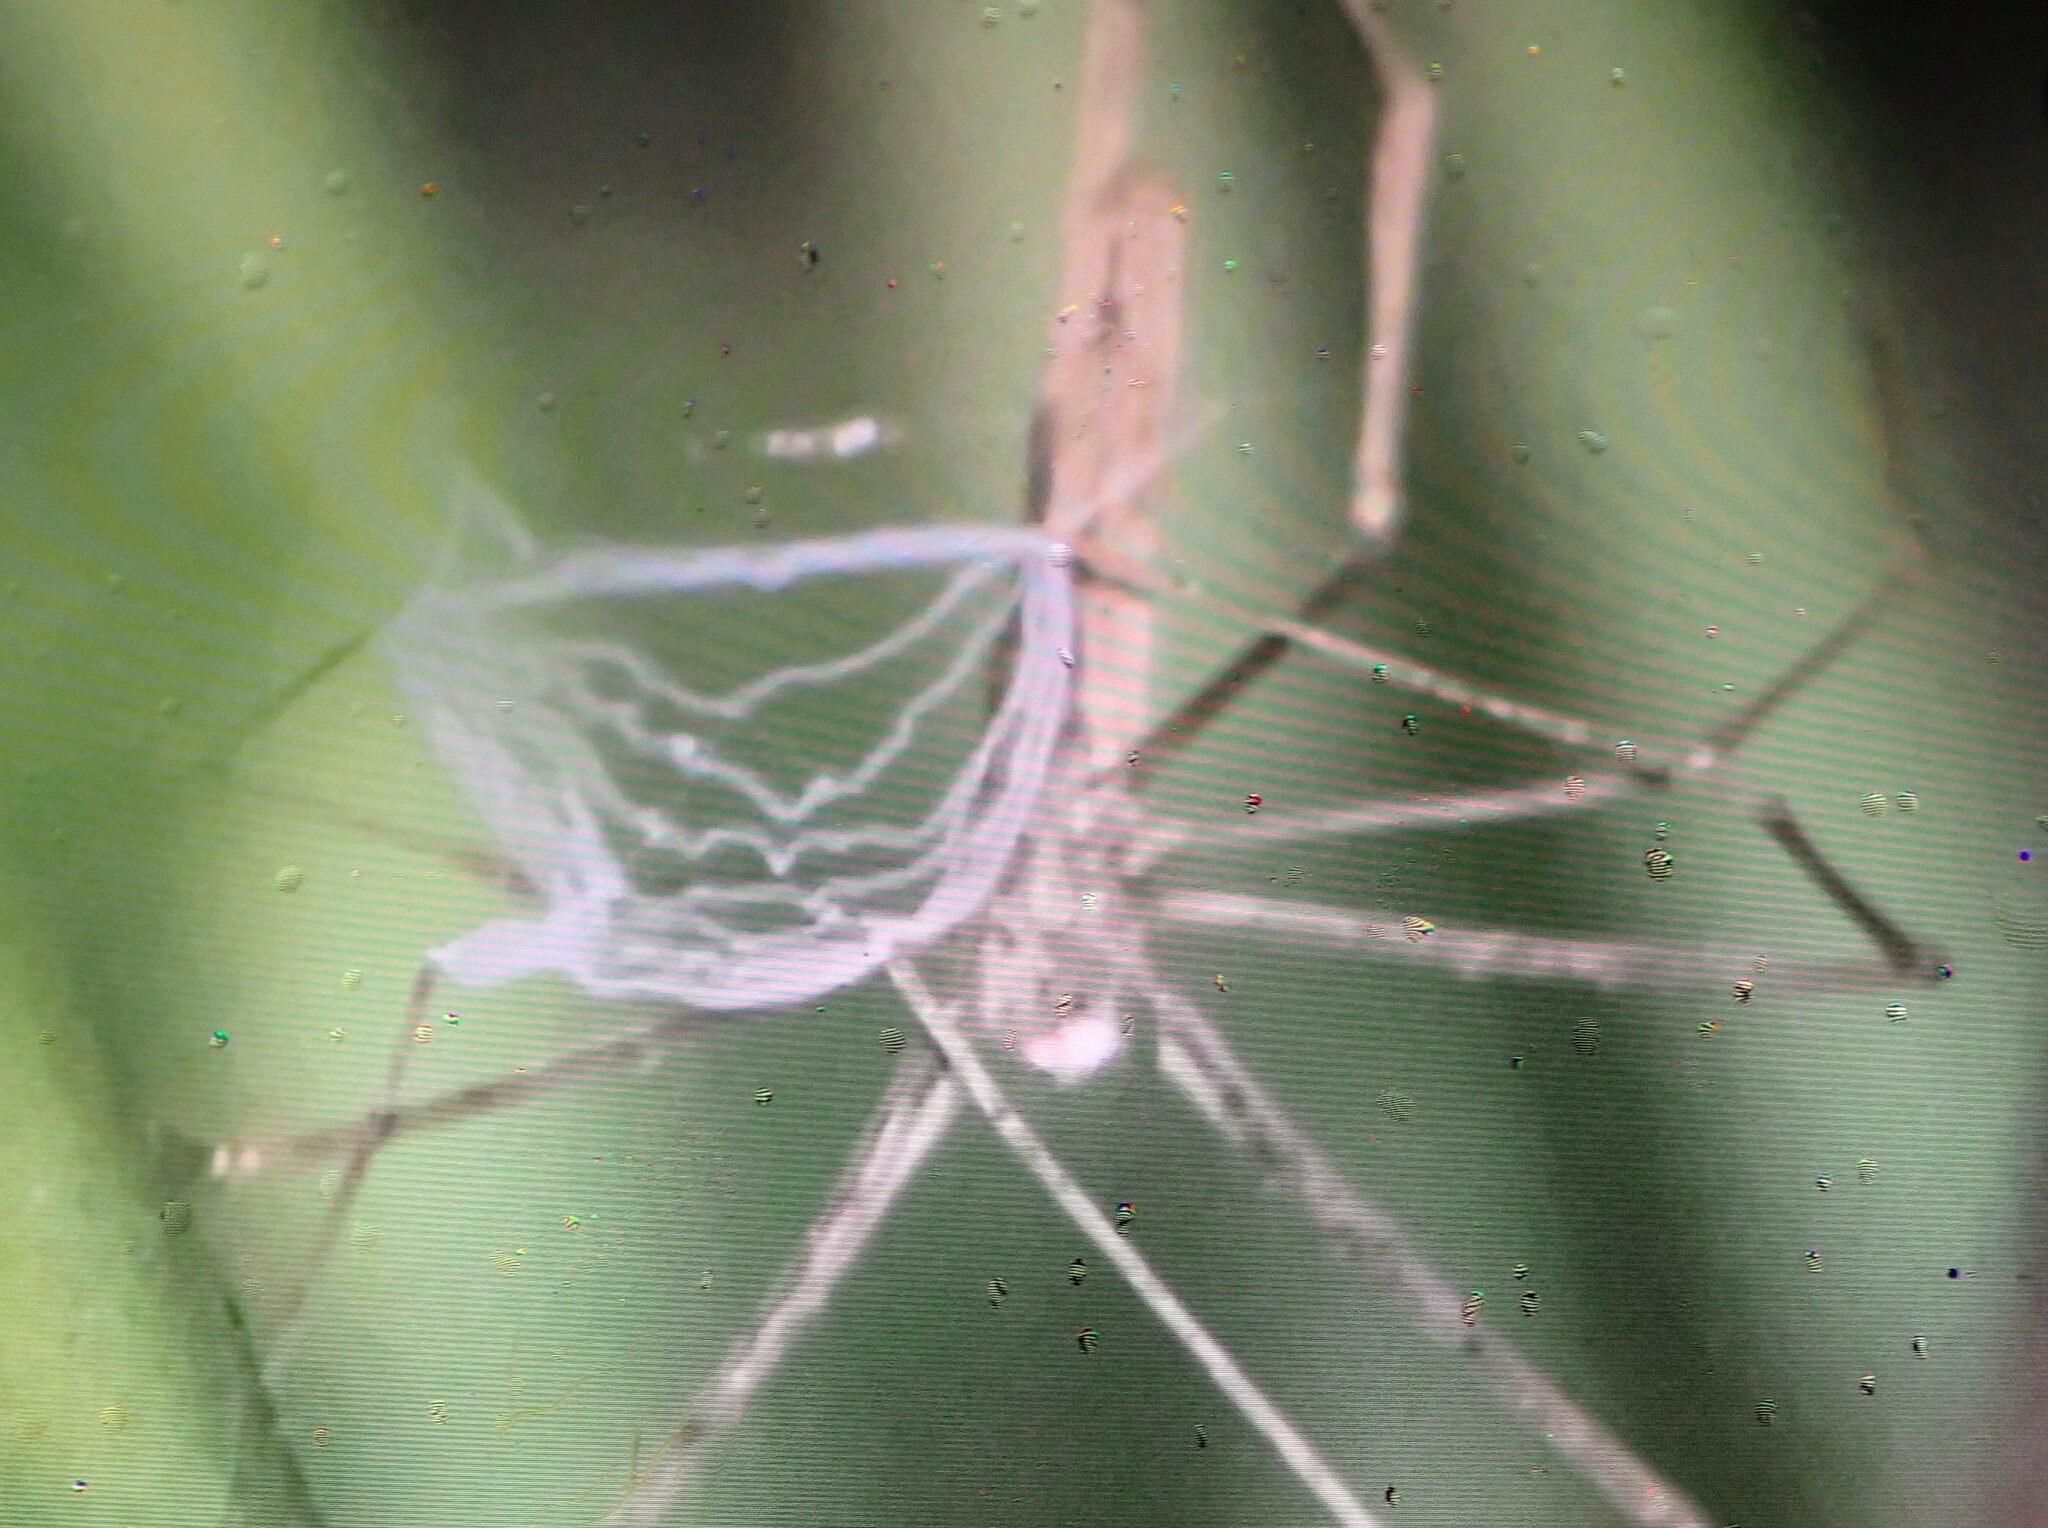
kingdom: Animalia
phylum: Arthropoda
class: Arachnida
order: Araneae
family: Deinopidae
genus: Deinopis
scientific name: Deinopis longipes
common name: Ogre faced spiders
